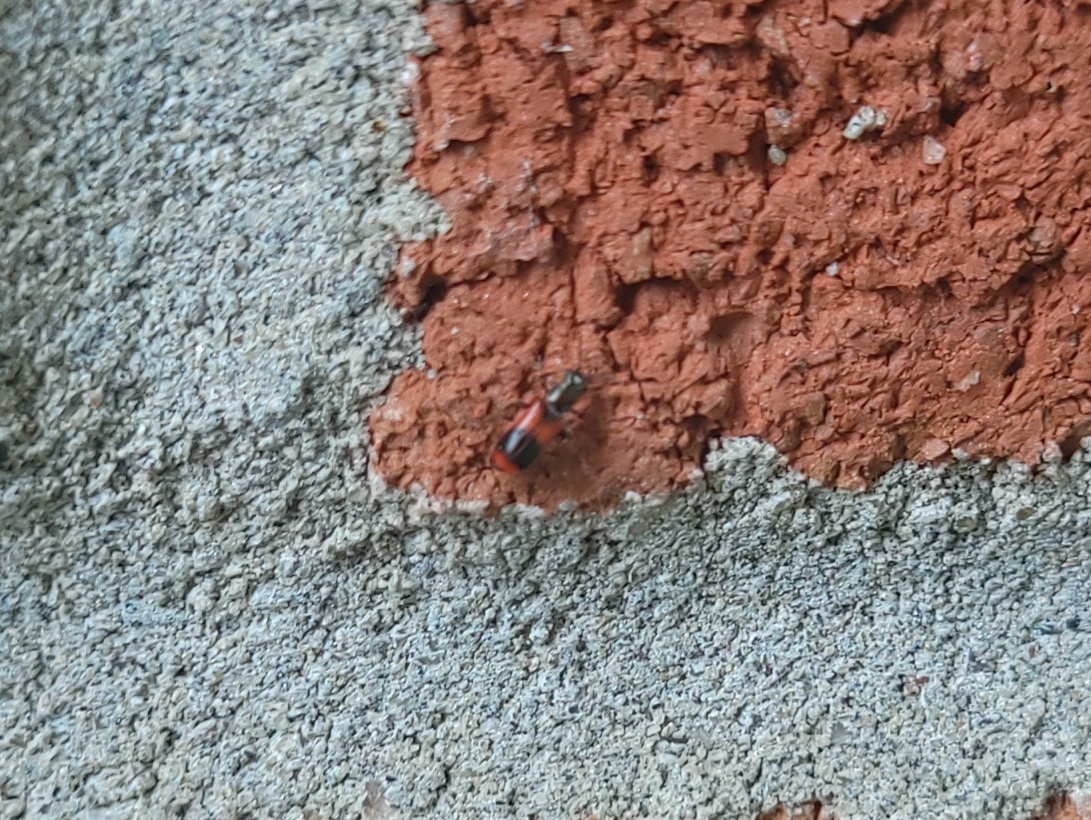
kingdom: Animalia
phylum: Arthropoda
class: Insecta
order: Coleoptera
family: Melyridae
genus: Anthocomus
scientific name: Anthocomus equestris
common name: Black-banded soft-winged flower beetle
